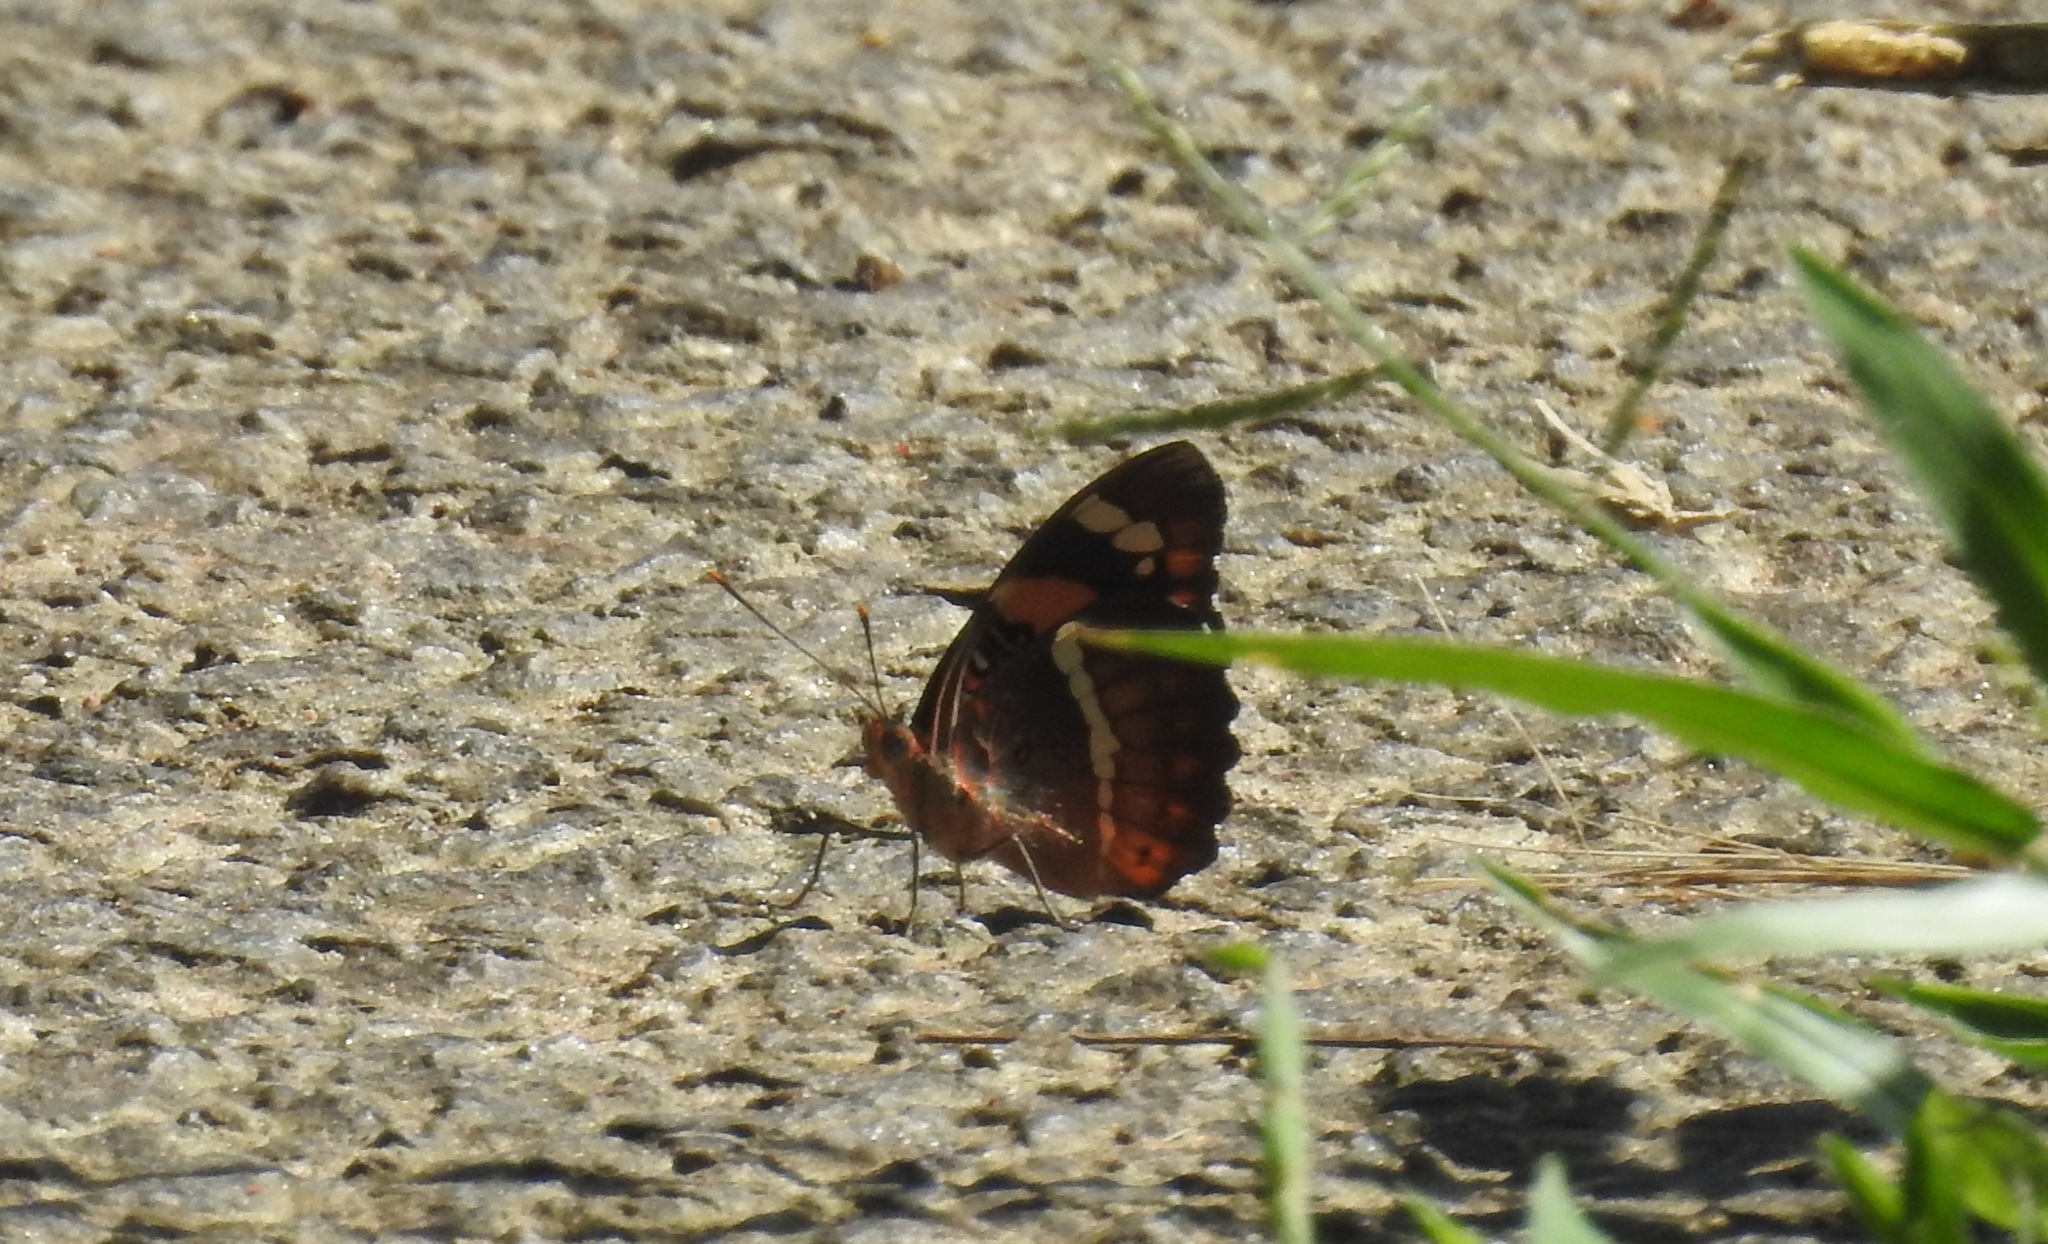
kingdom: Animalia
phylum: Arthropoda
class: Insecta
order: Lepidoptera
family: Nymphalidae
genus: Euthalia
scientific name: Euthalia nais
